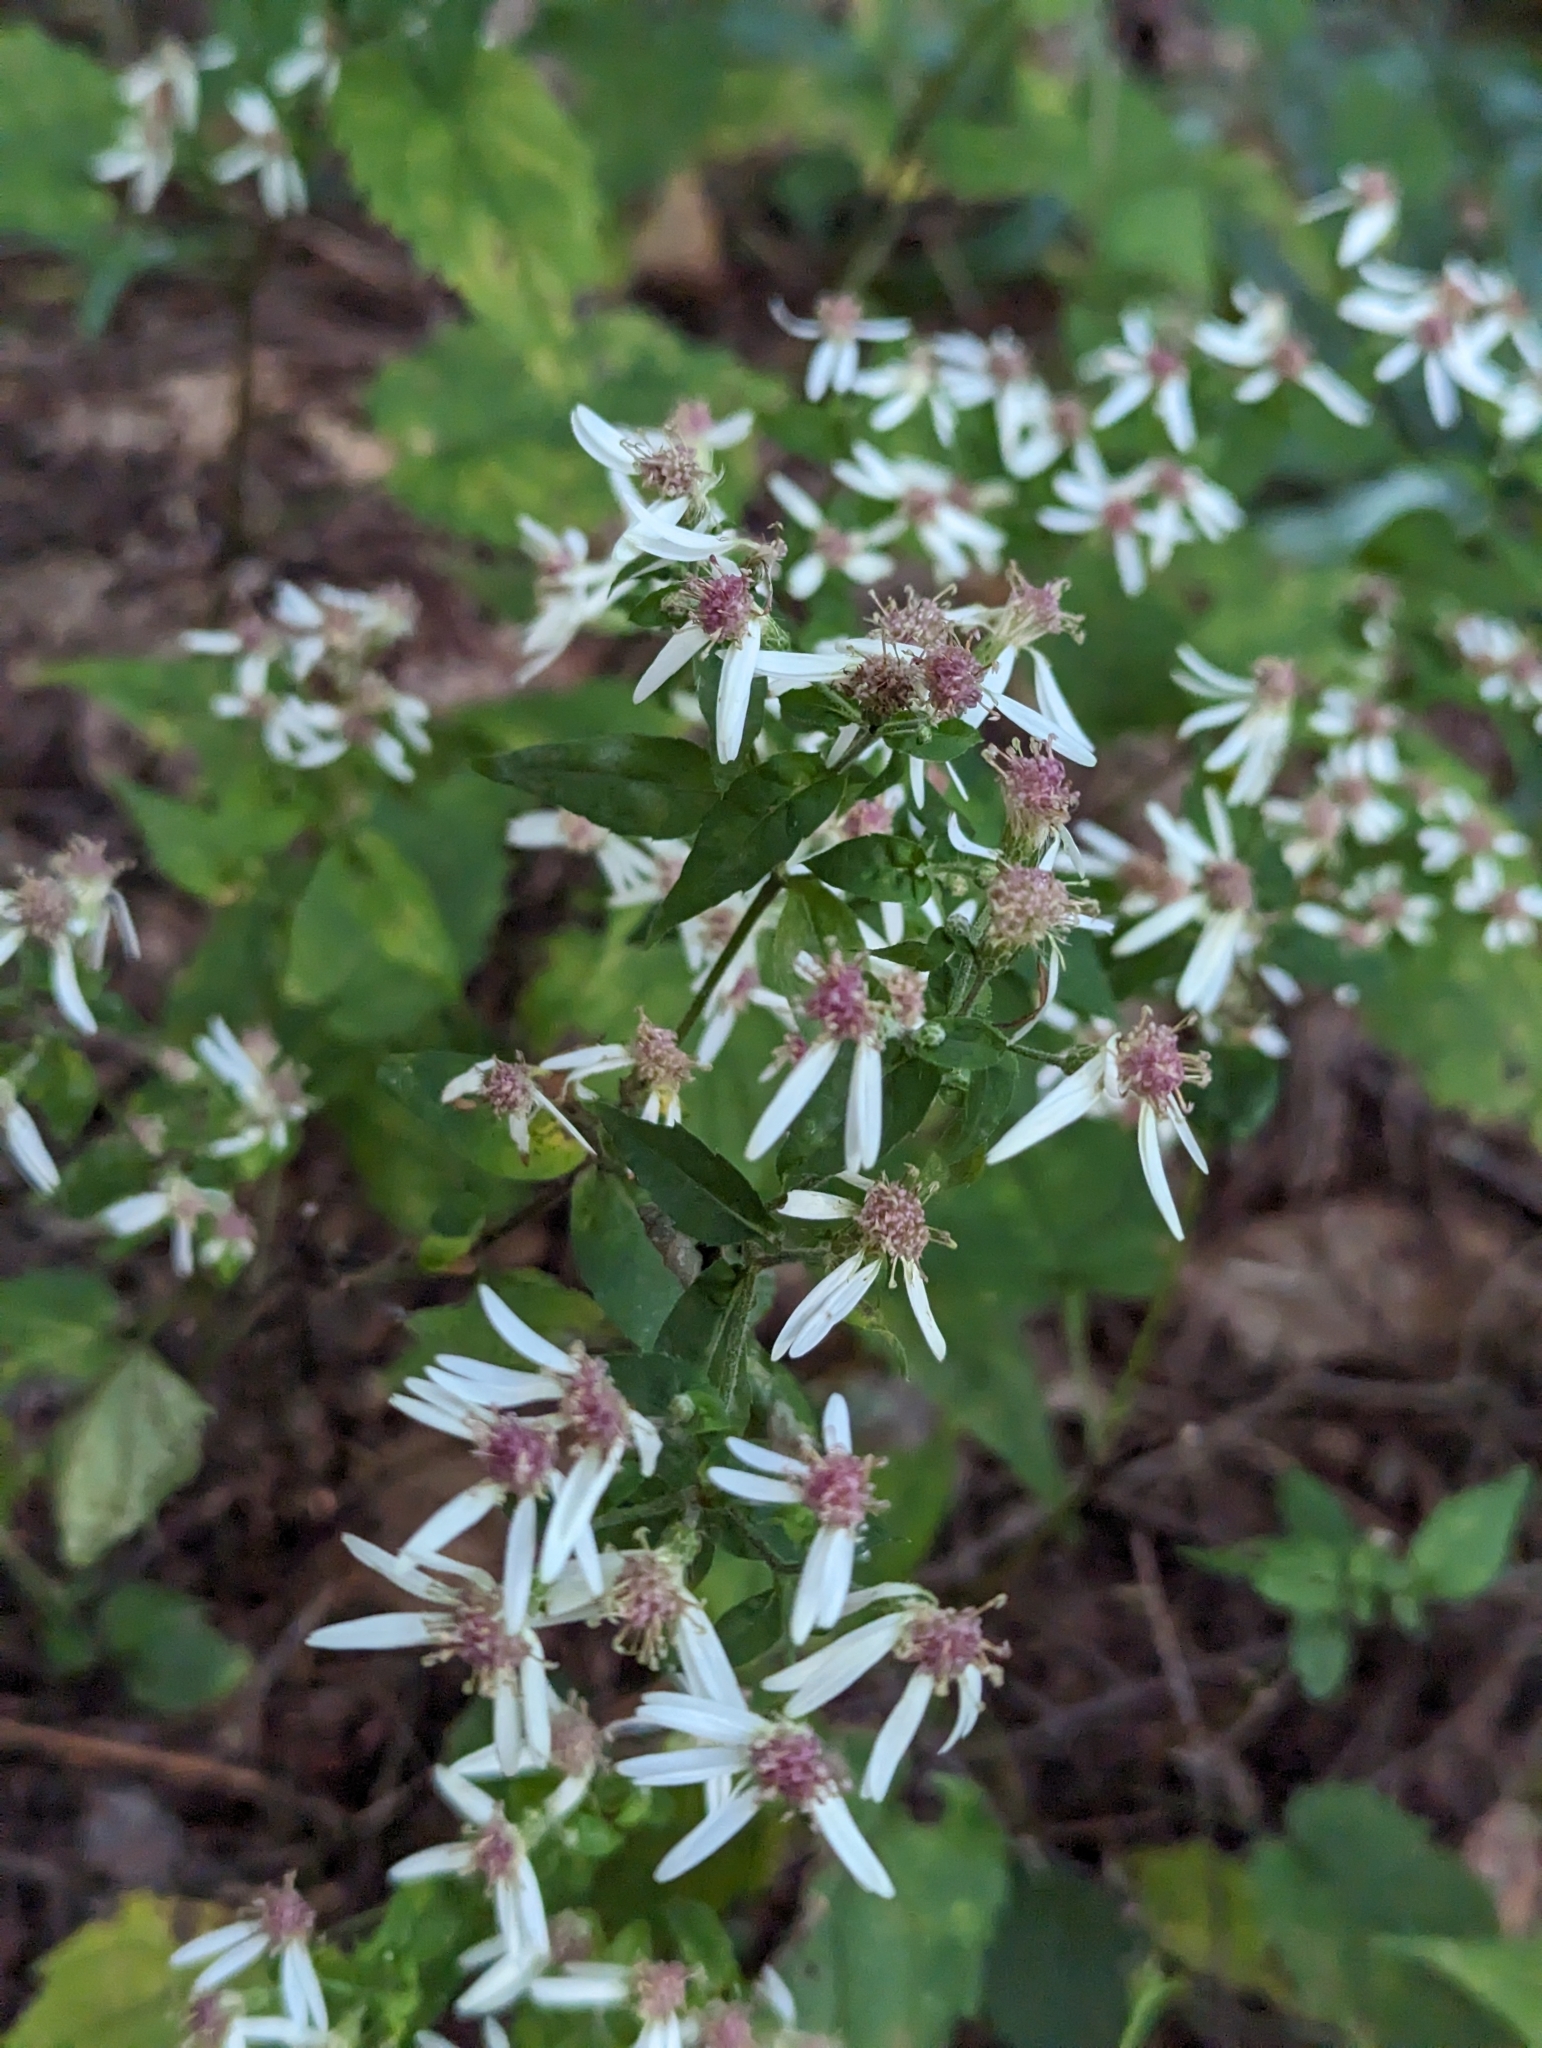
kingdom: Plantae
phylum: Tracheophyta
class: Magnoliopsida
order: Asterales
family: Asteraceae
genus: Eurybia
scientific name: Eurybia divaricata
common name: White wood aster
